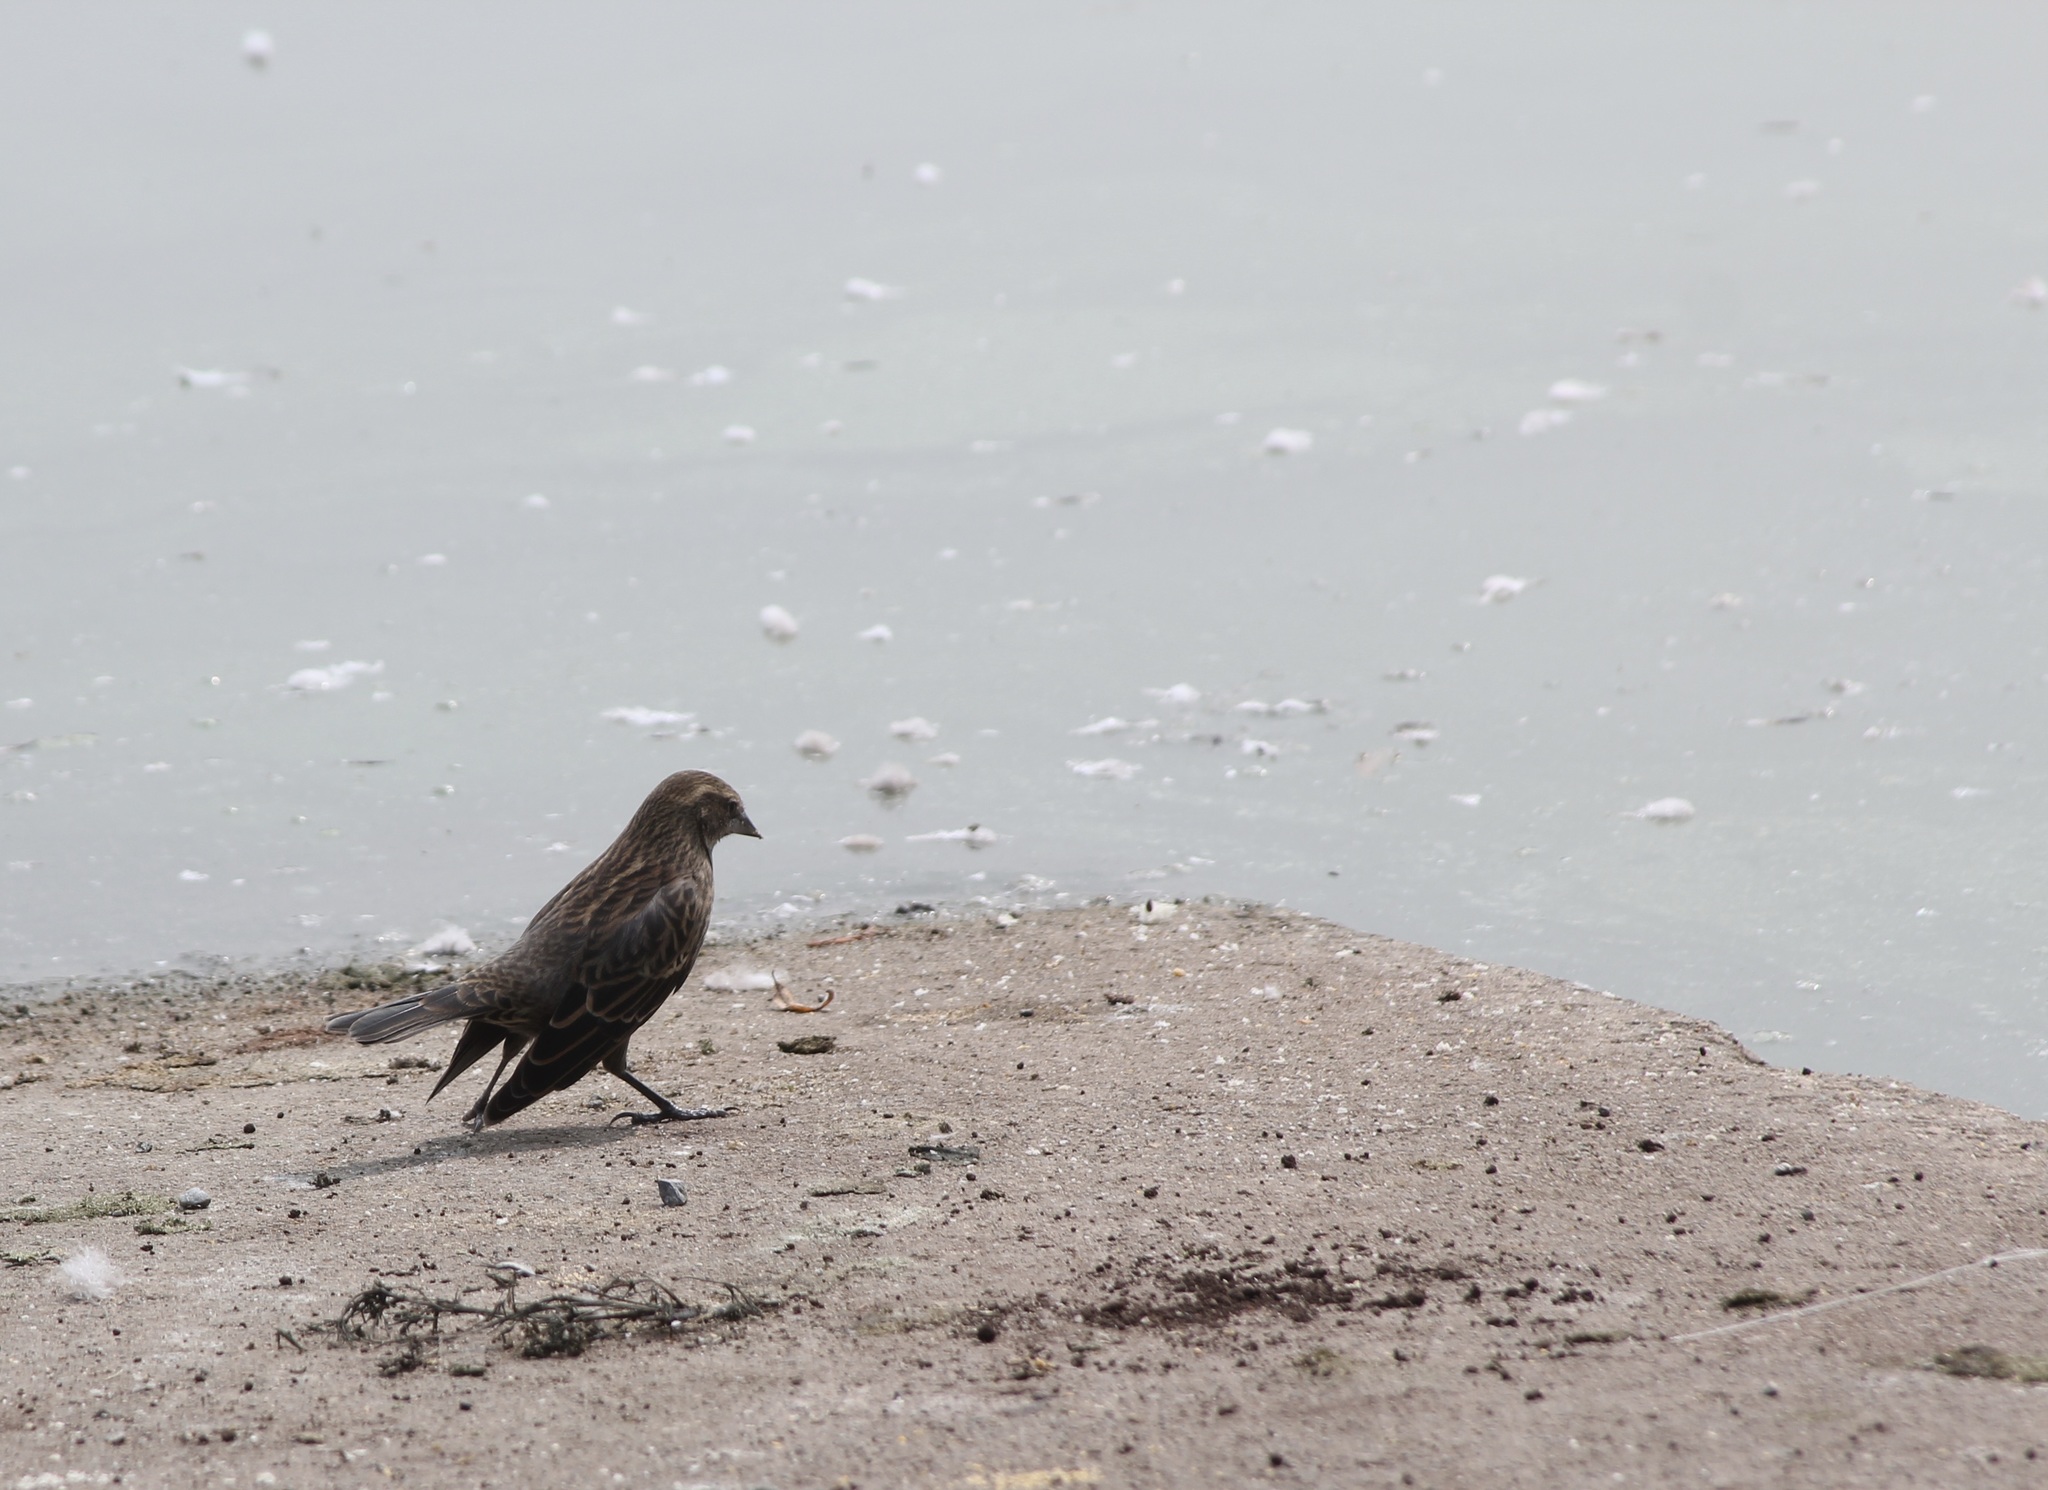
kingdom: Animalia
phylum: Chordata
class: Aves
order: Passeriformes
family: Icteridae
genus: Agelaius
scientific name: Agelaius phoeniceus
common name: Red-winged blackbird
